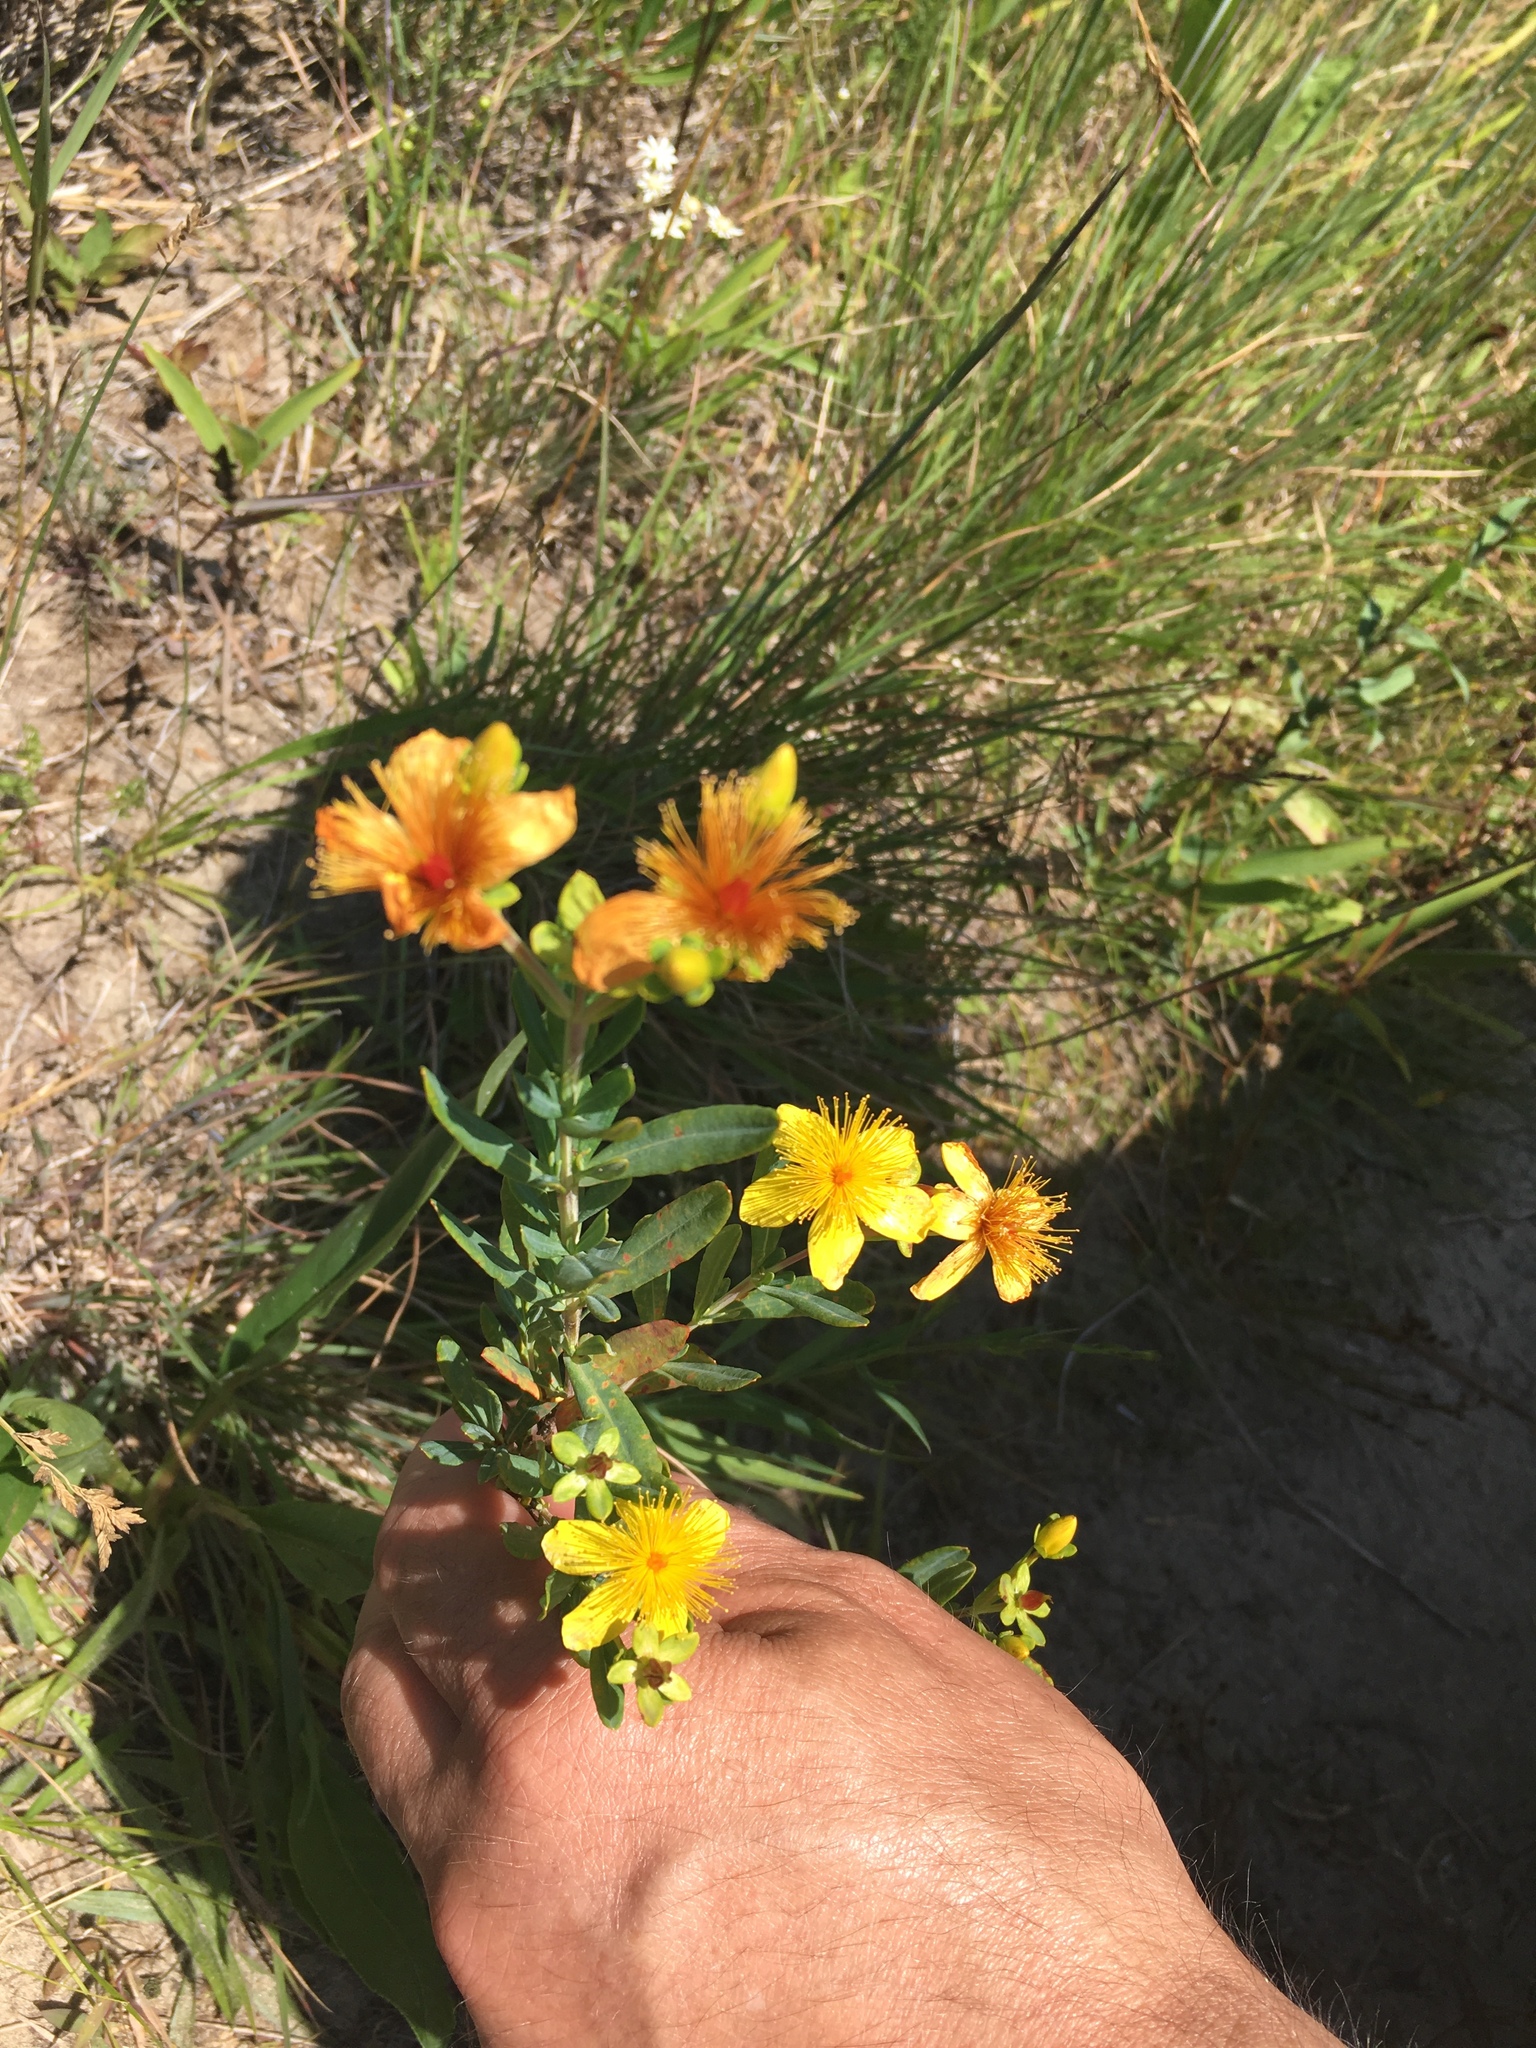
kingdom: Plantae
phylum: Tracheophyta
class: Magnoliopsida
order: Malpighiales
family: Hypericaceae
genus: Hypericum
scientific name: Hypericum kalmianum
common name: Kalm's st. john's-wort
